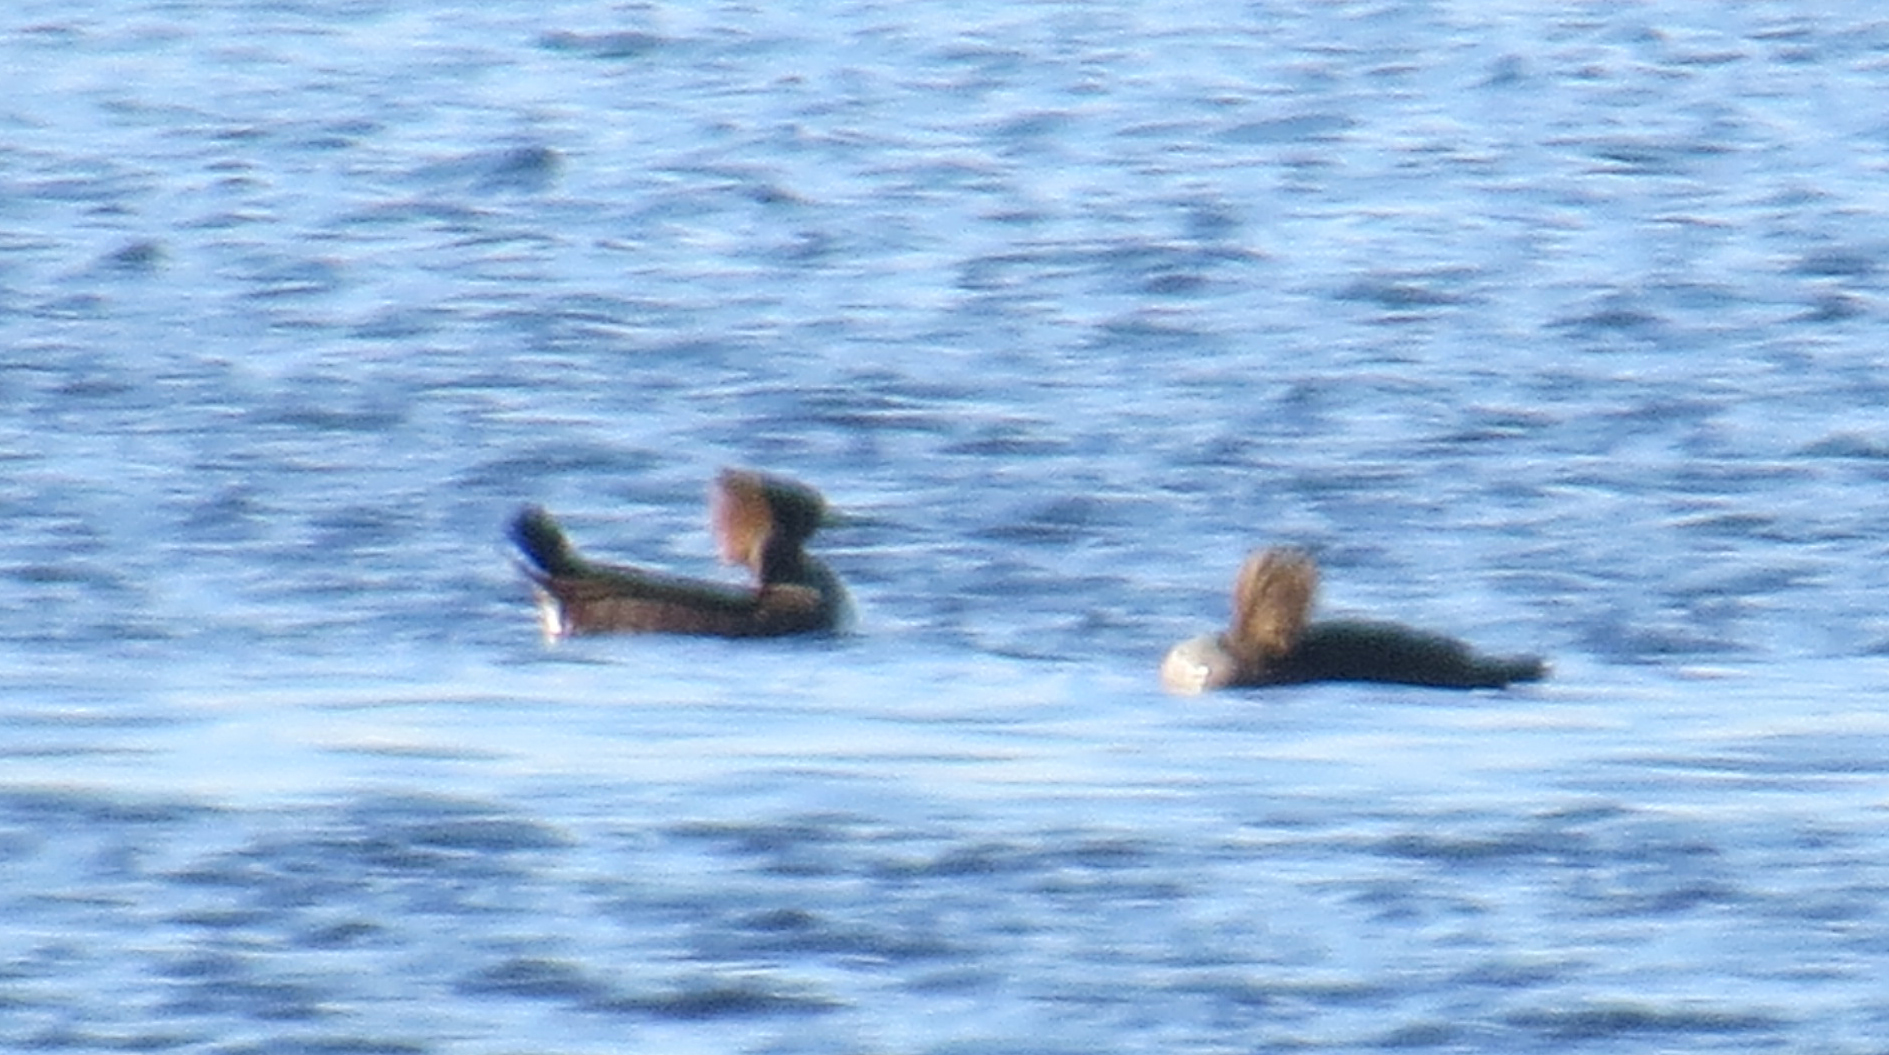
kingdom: Animalia
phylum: Chordata
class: Aves
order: Anseriformes
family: Anatidae
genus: Lophodytes
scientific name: Lophodytes cucullatus
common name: Hooded merganser
